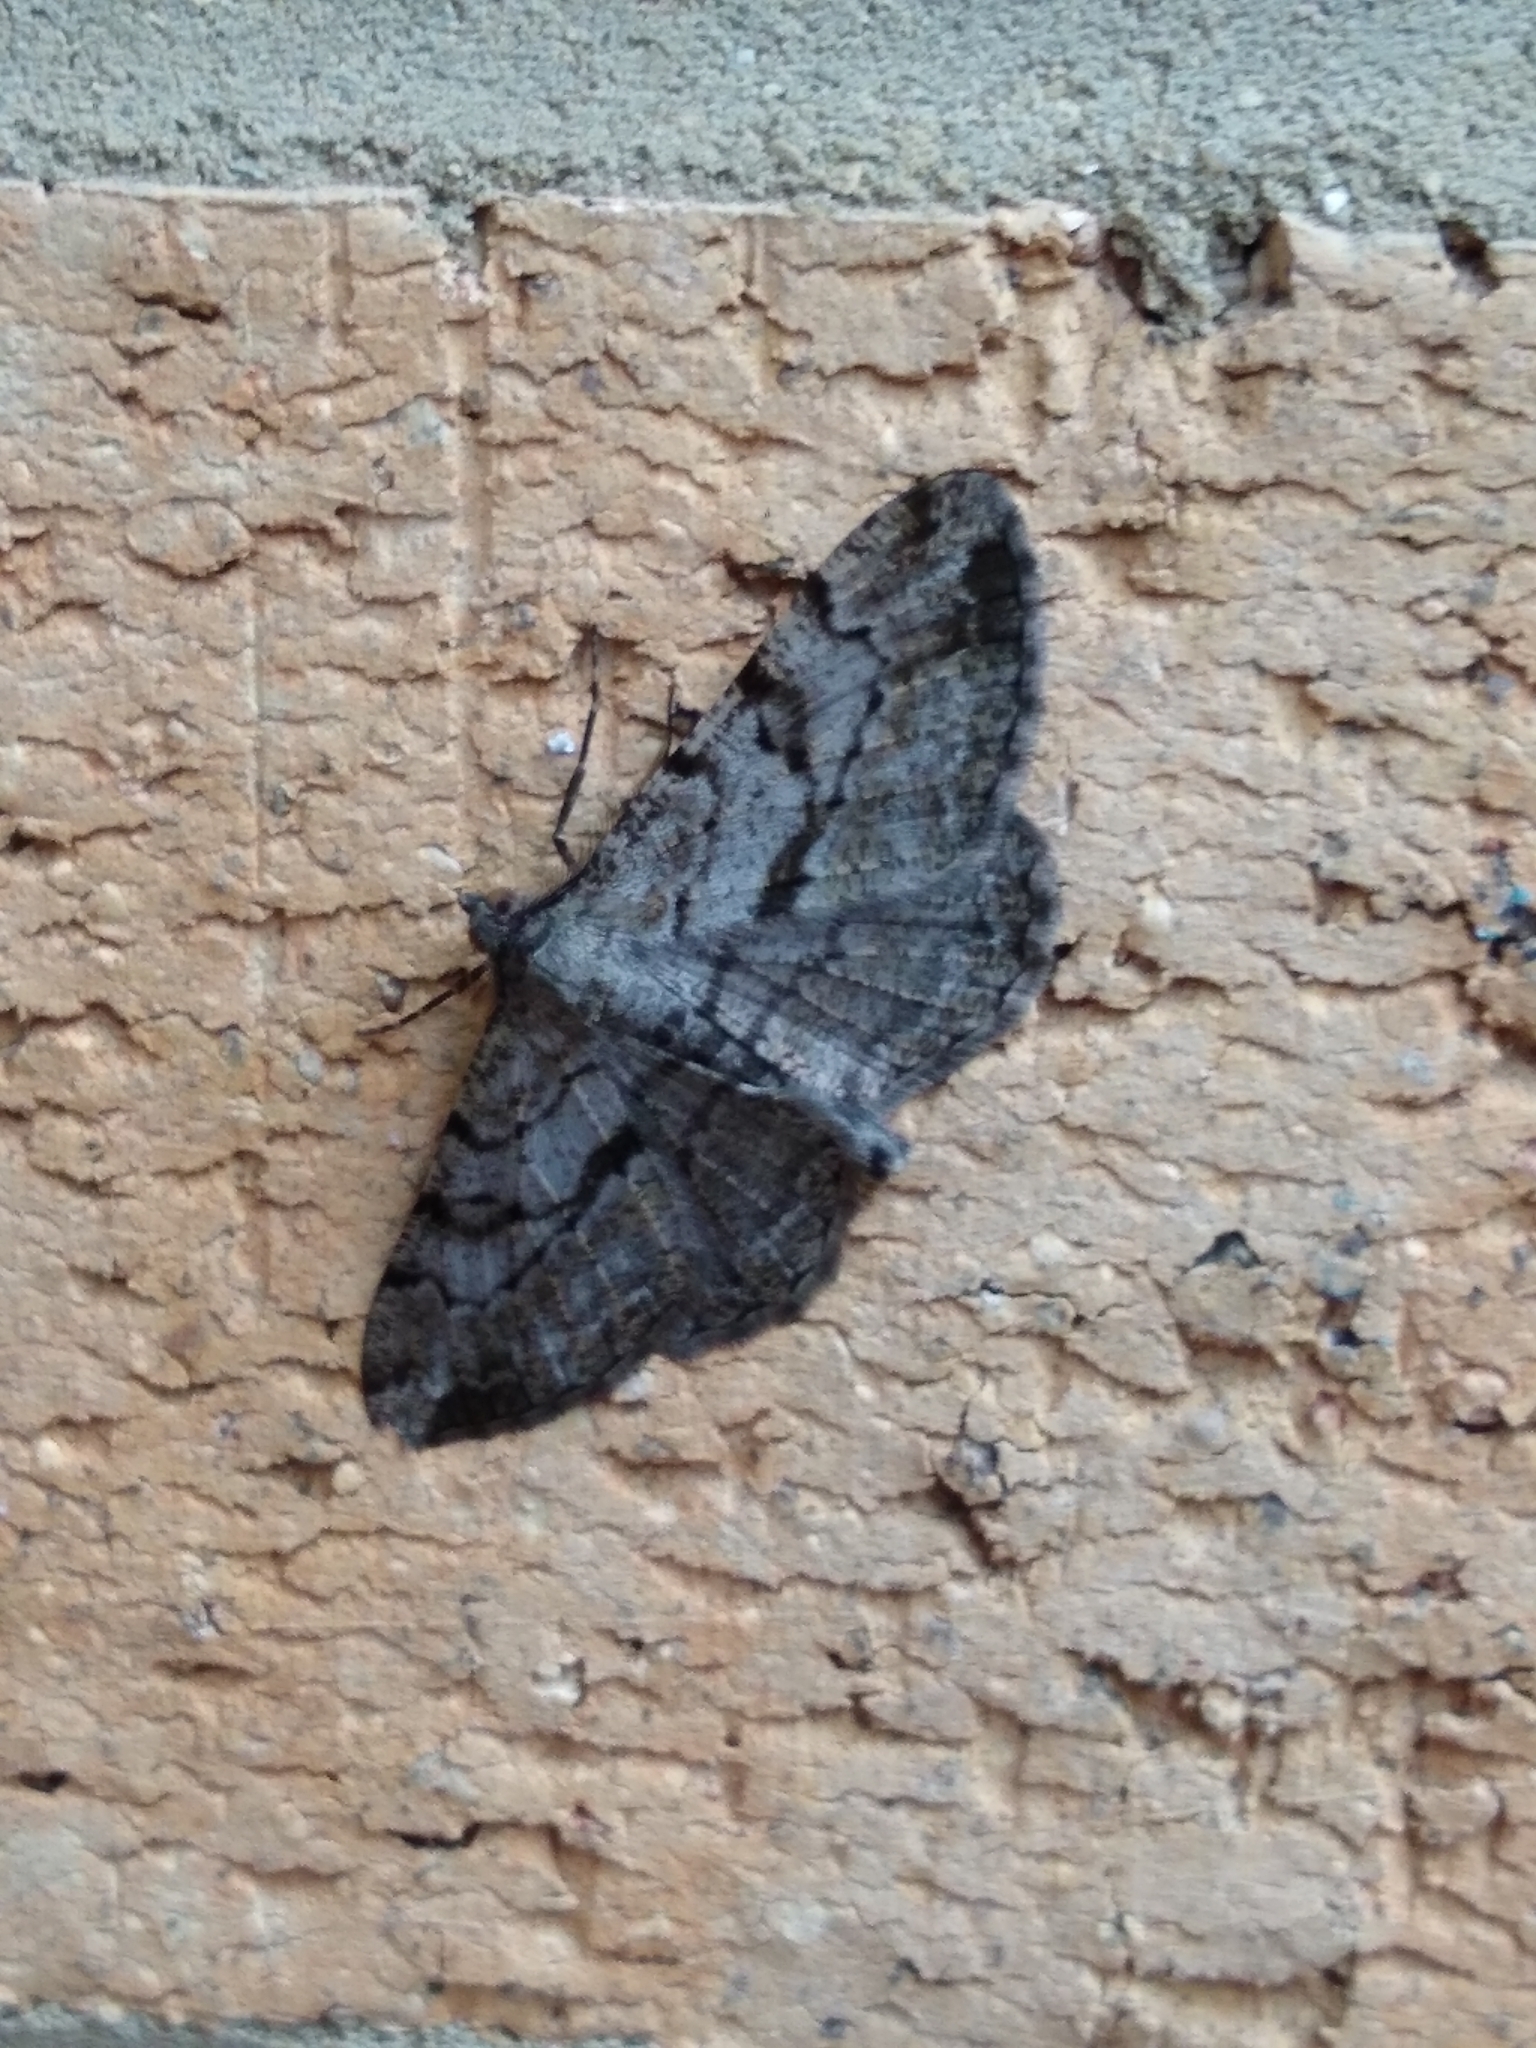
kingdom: Animalia
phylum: Arthropoda
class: Insecta
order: Lepidoptera
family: Geometridae
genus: Peribatodes
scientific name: Peribatodes rhomboidaria
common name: Willow beauty
